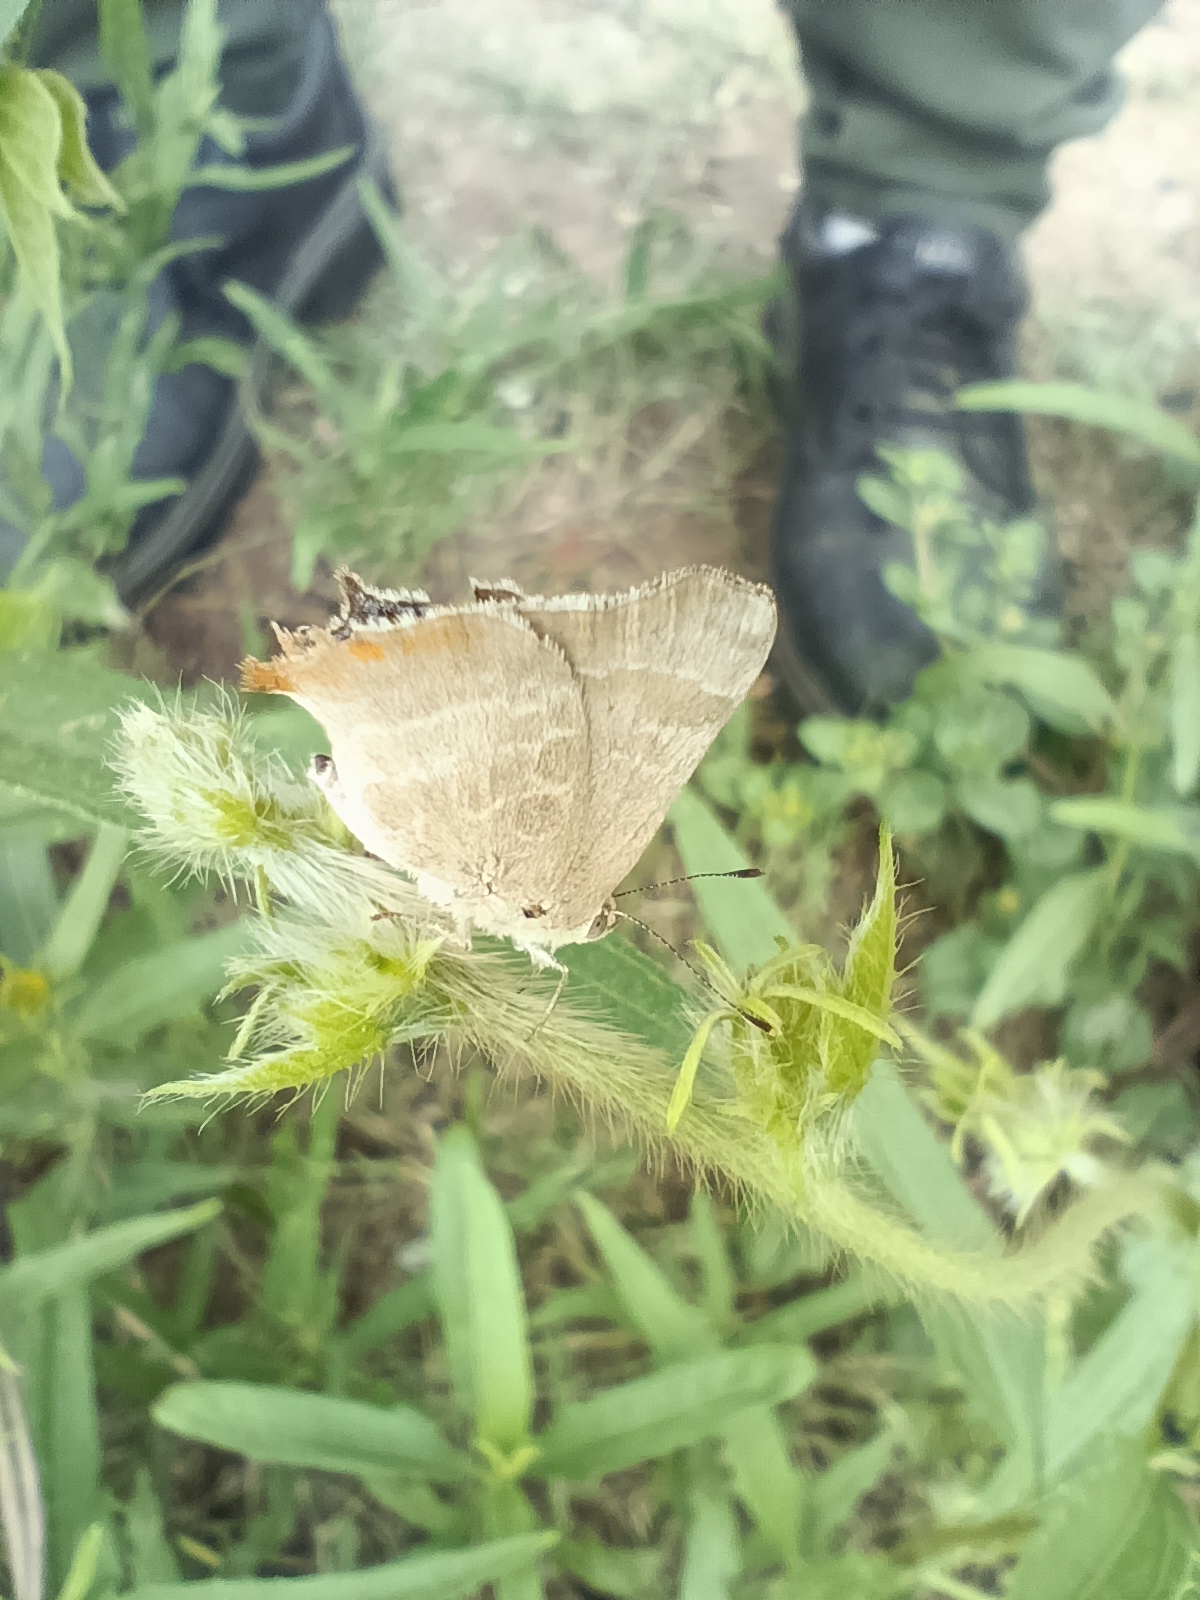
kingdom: Animalia
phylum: Arthropoda
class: Insecta
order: Lepidoptera
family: Lycaenidae
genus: Arawacus
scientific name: Arawacus
